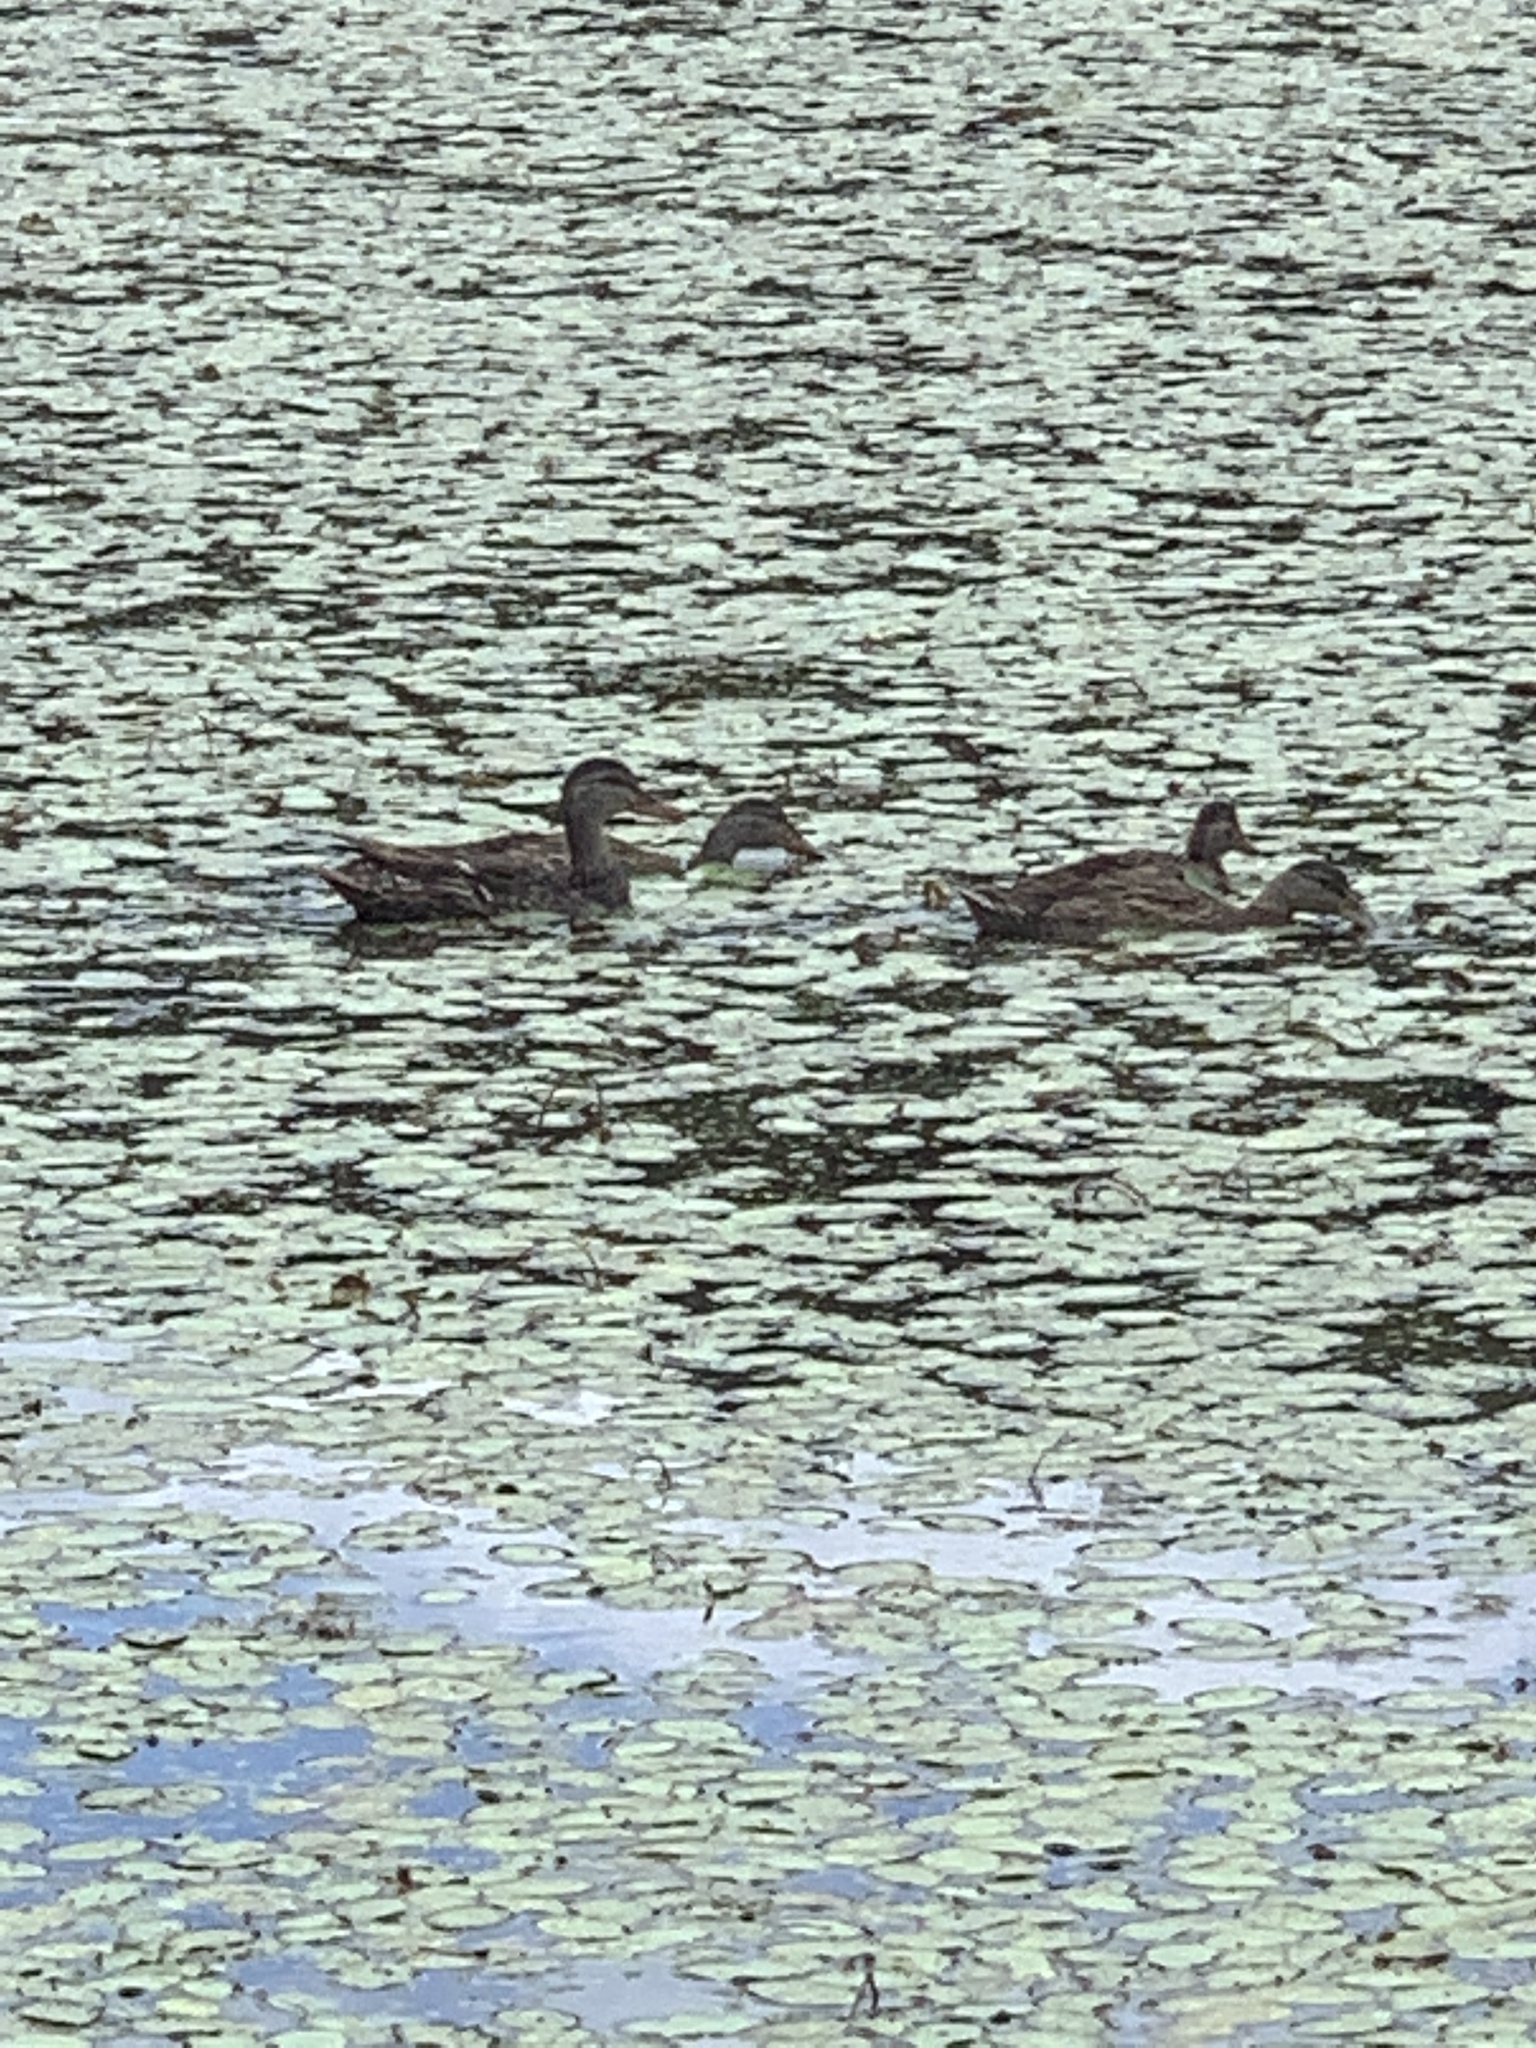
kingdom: Animalia
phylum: Chordata
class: Aves
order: Anseriformes
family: Anatidae
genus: Anas
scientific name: Anas platyrhynchos
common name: Mallard
